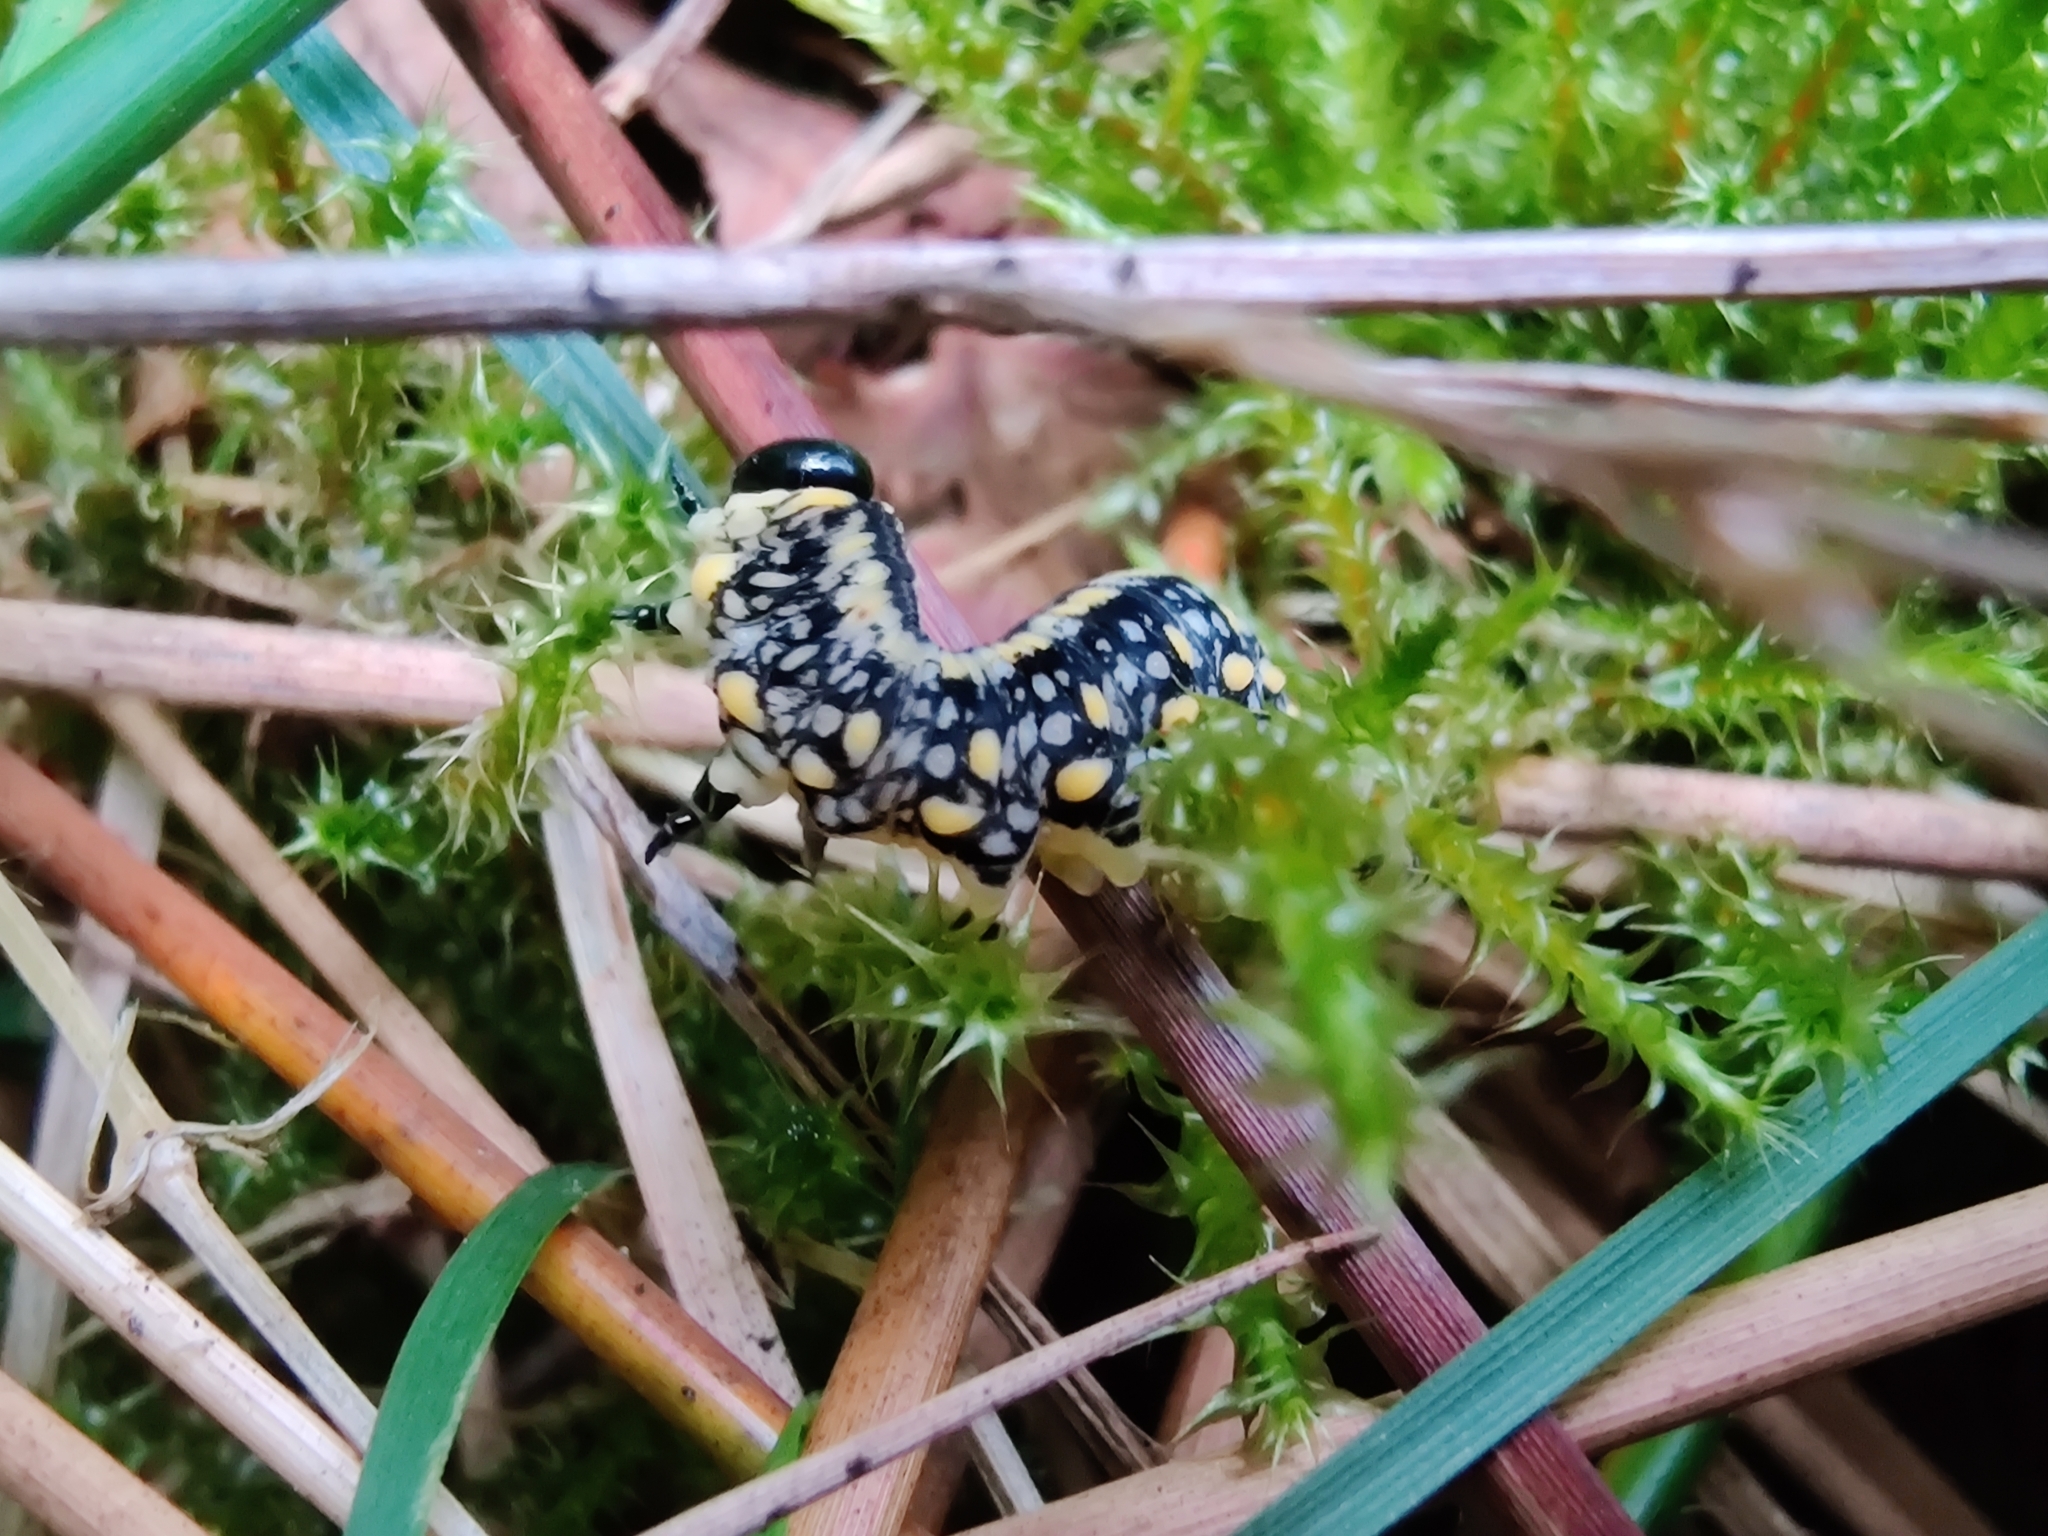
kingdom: Animalia
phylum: Arthropoda
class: Insecta
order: Hymenoptera
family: Diprionidae
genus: Diprion
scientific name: Diprion similis
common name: Pine sawfly
